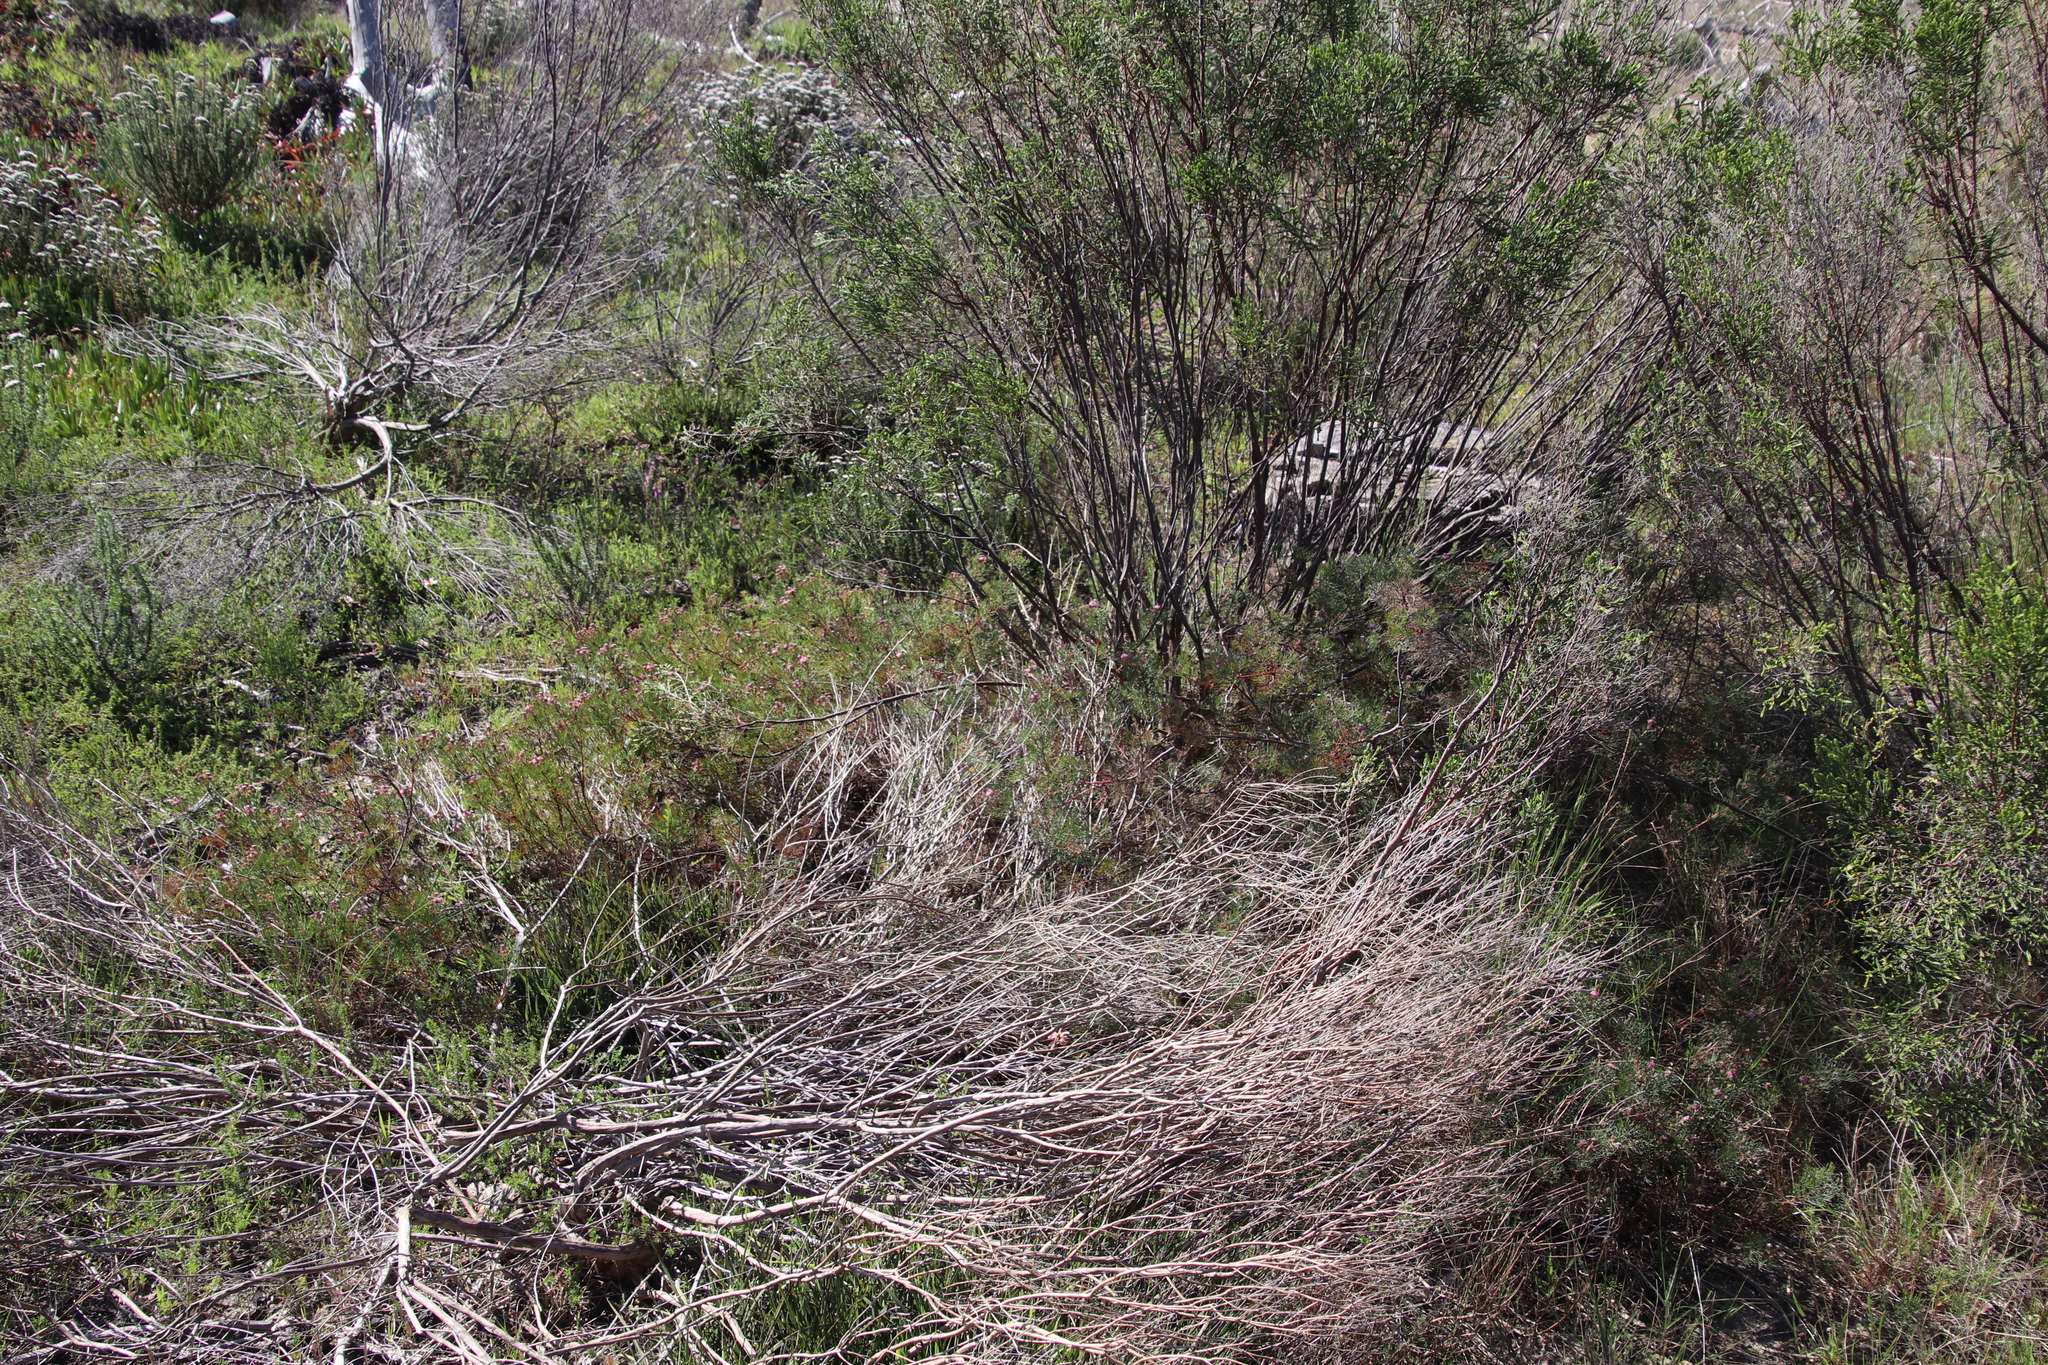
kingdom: Plantae
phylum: Tracheophyta
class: Magnoliopsida
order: Proteales
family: Proteaceae
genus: Serruria
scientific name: Serruria fasciflora
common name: Common pin spiderhead
